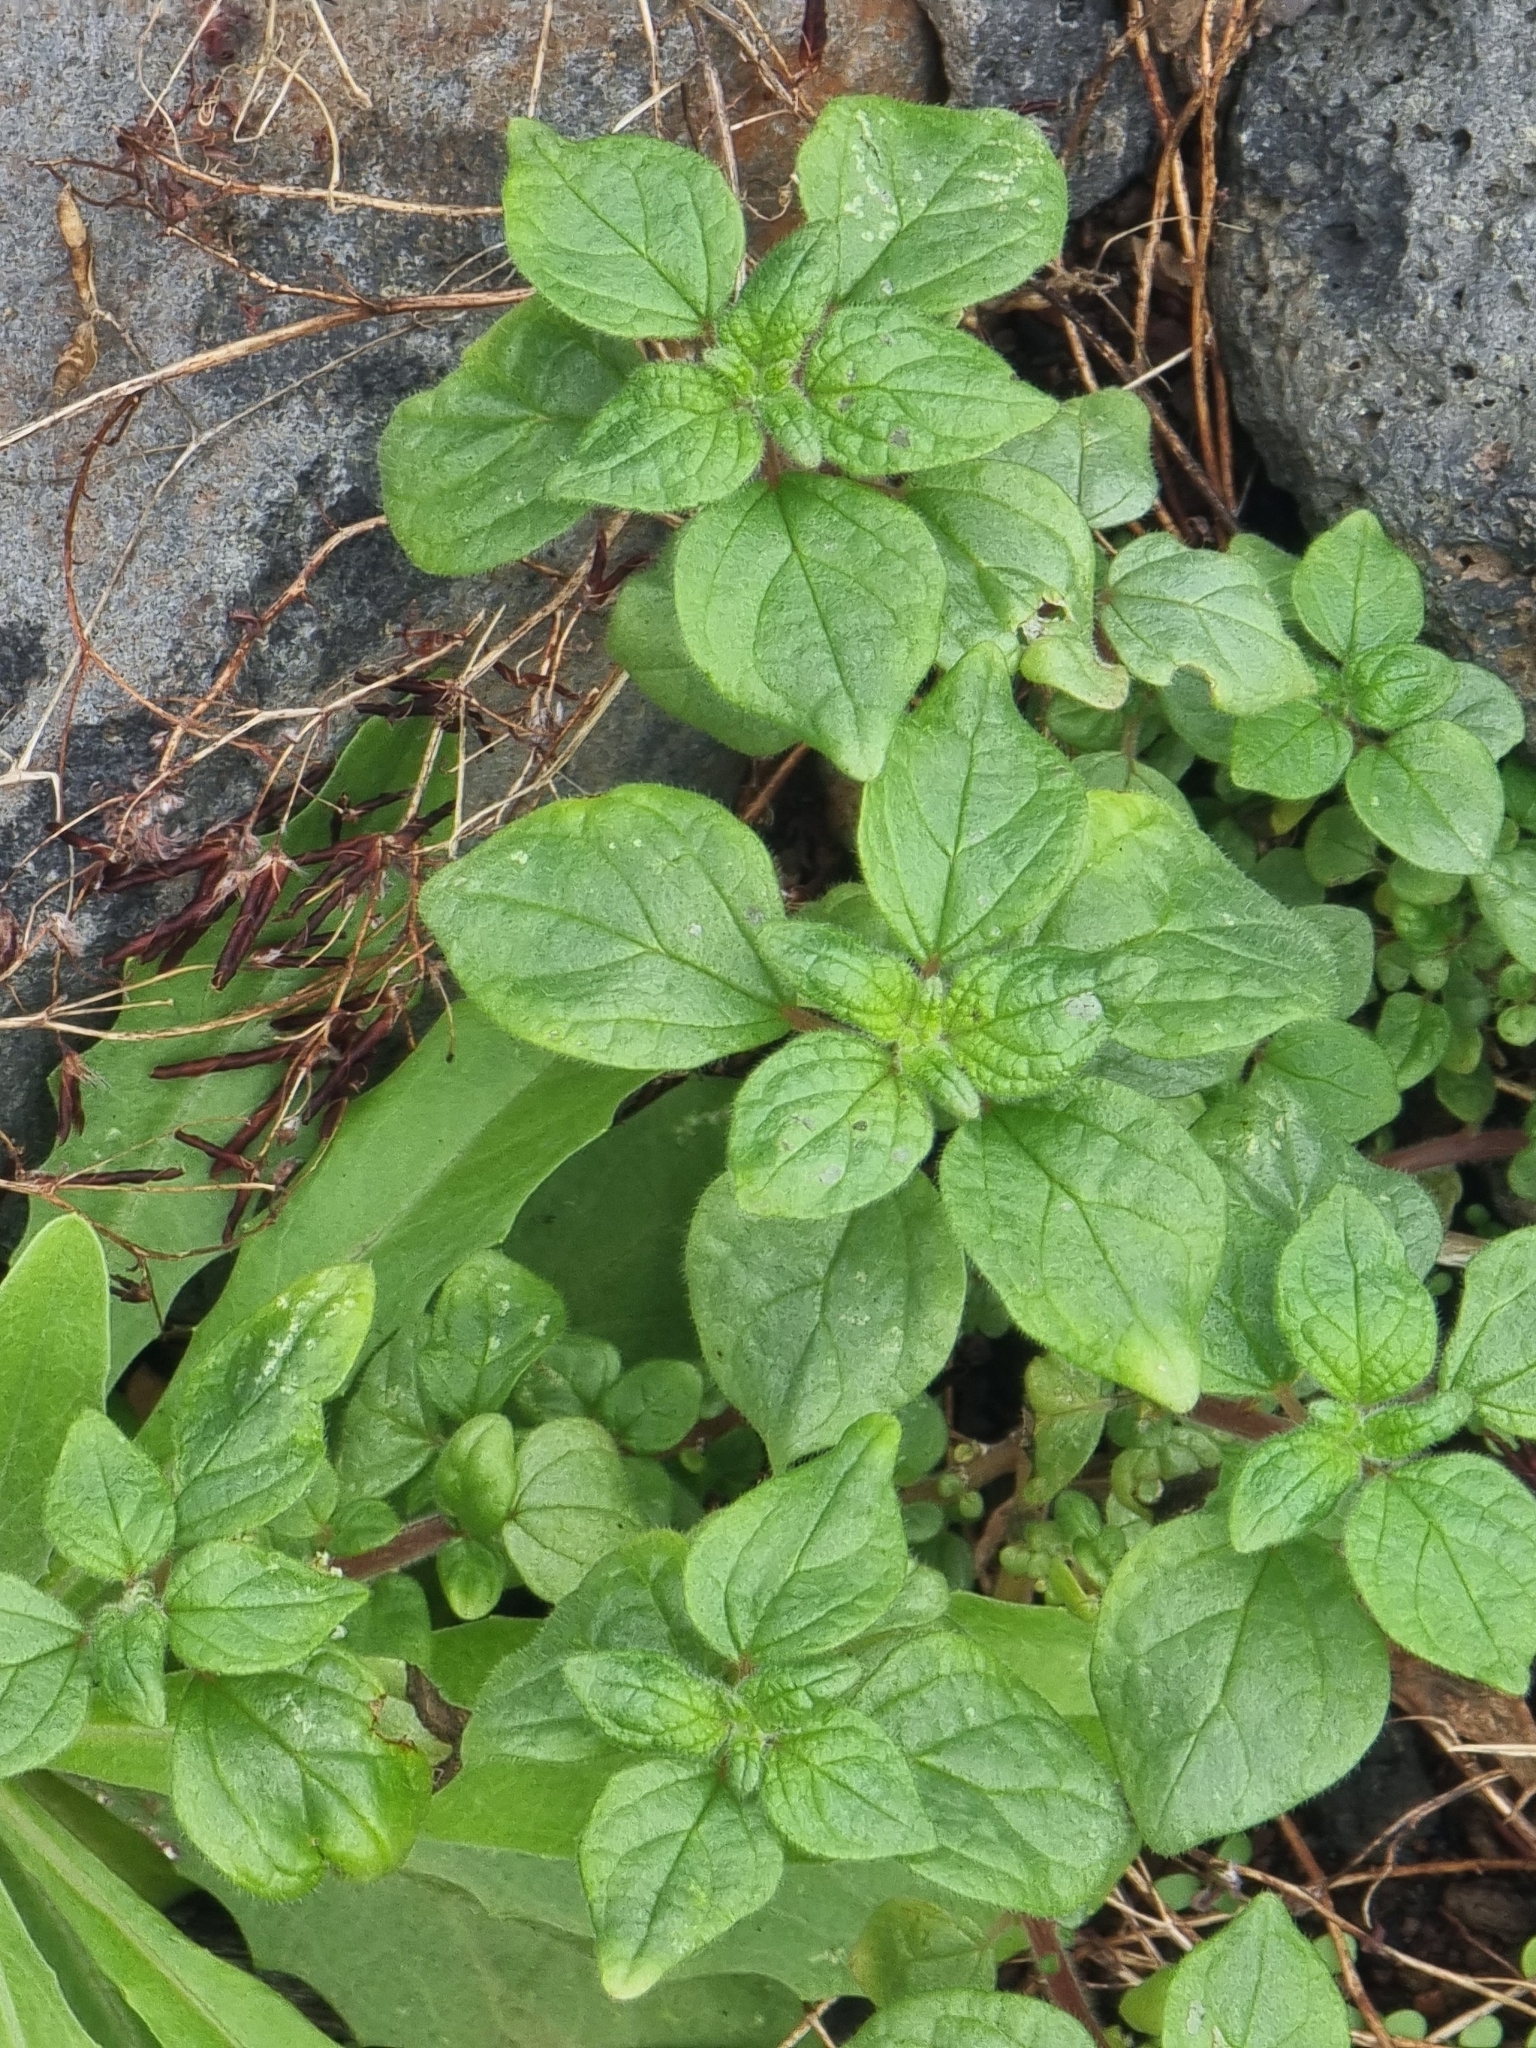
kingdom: Plantae
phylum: Tracheophyta
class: Magnoliopsida
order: Rosales
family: Urticaceae
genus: Parietaria
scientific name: Parietaria judaica
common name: Pellitory-of-the-wall
